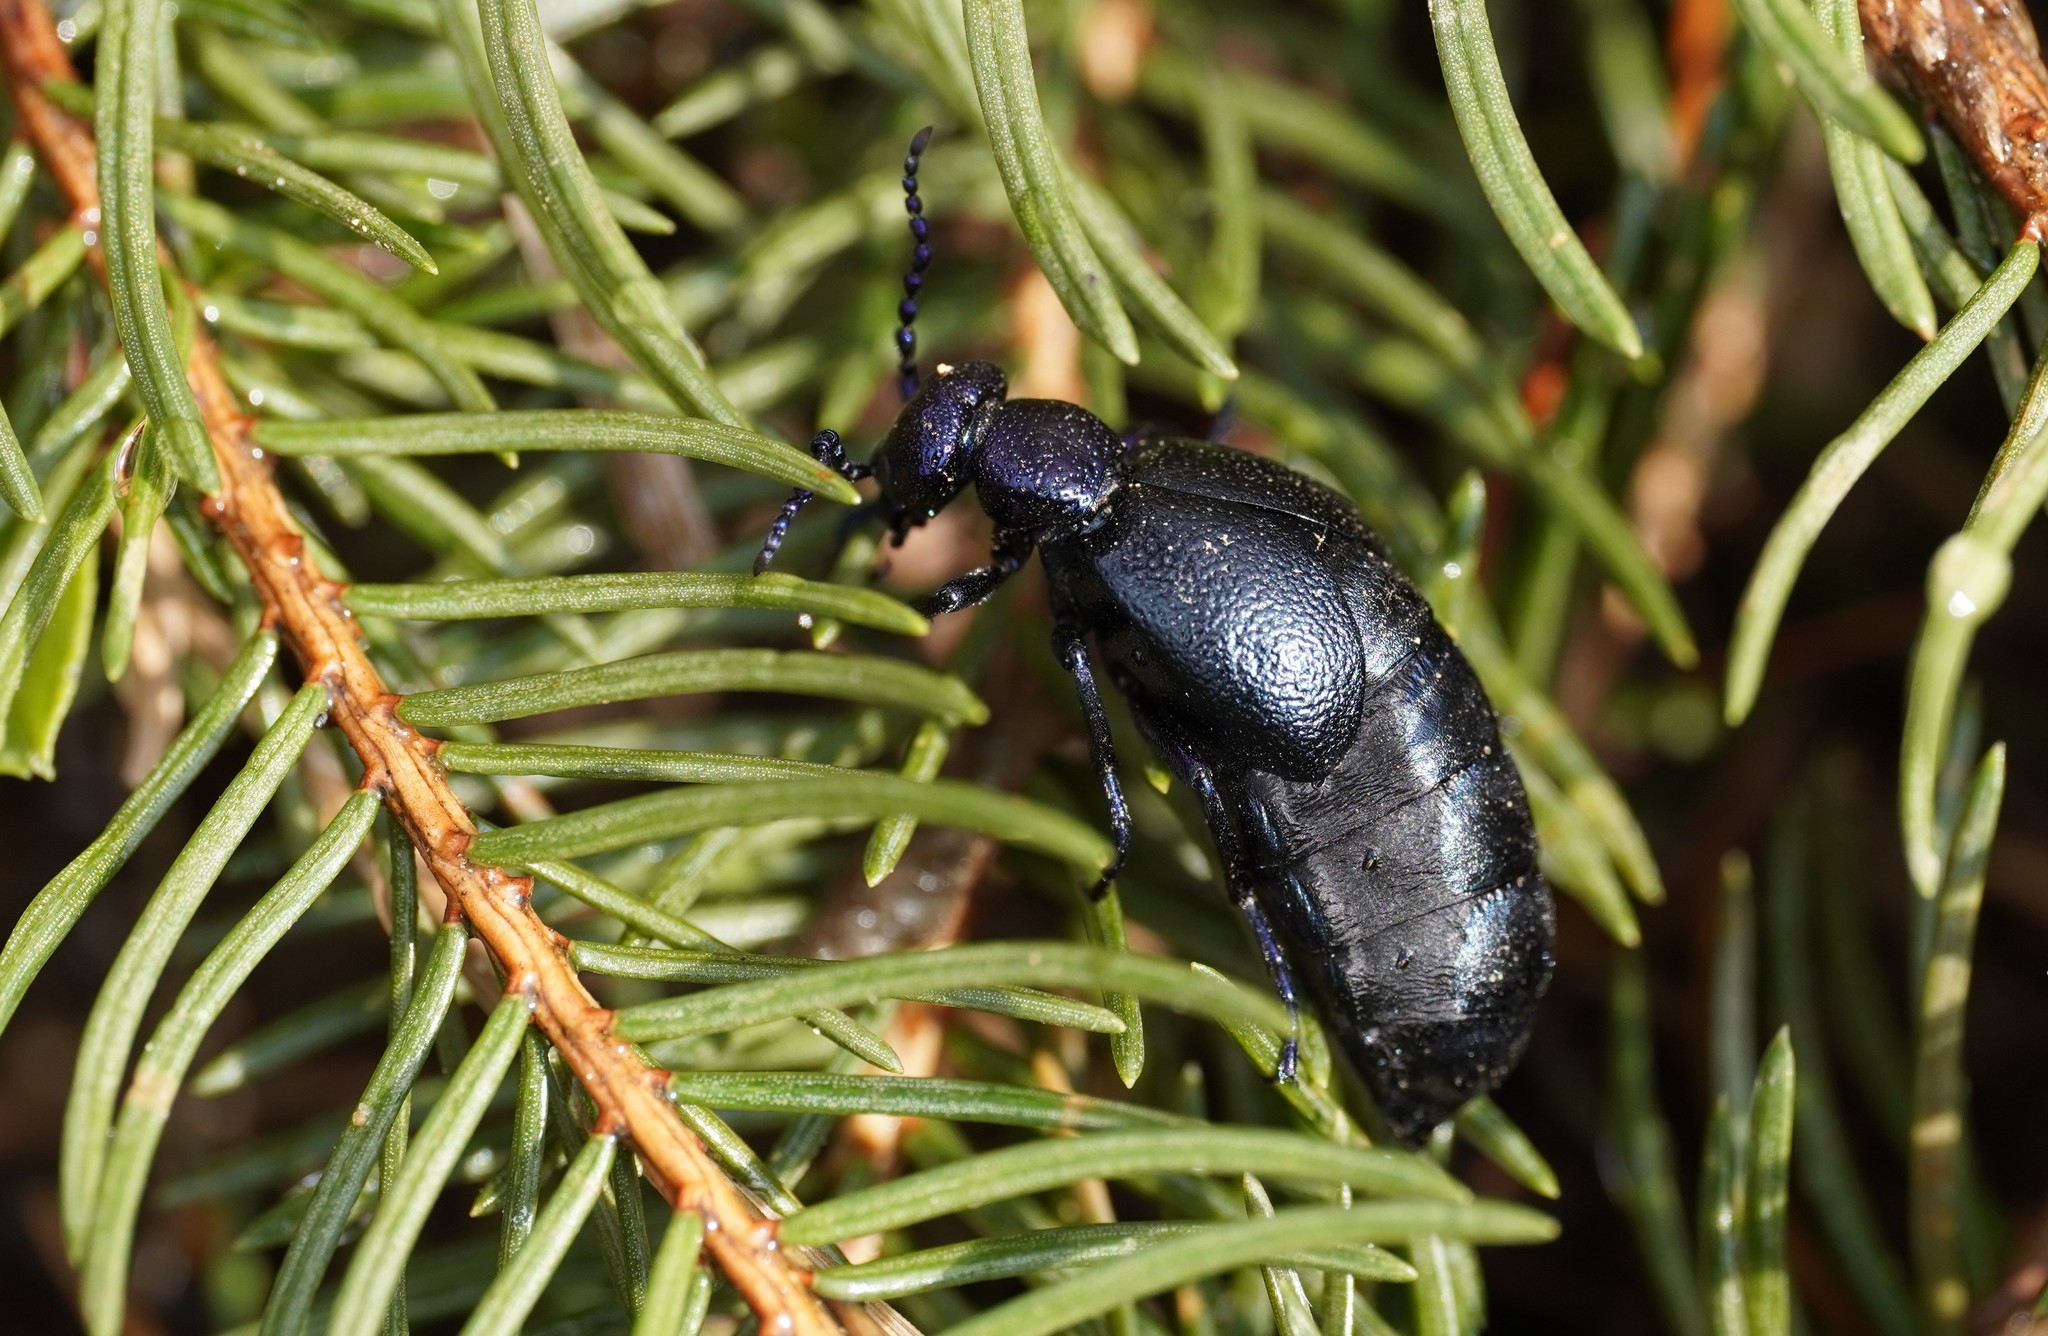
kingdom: Animalia
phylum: Arthropoda
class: Insecta
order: Coleoptera
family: Meloidae
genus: Meloe
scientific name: Meloe proscarabaeus
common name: Black oil-beetle
